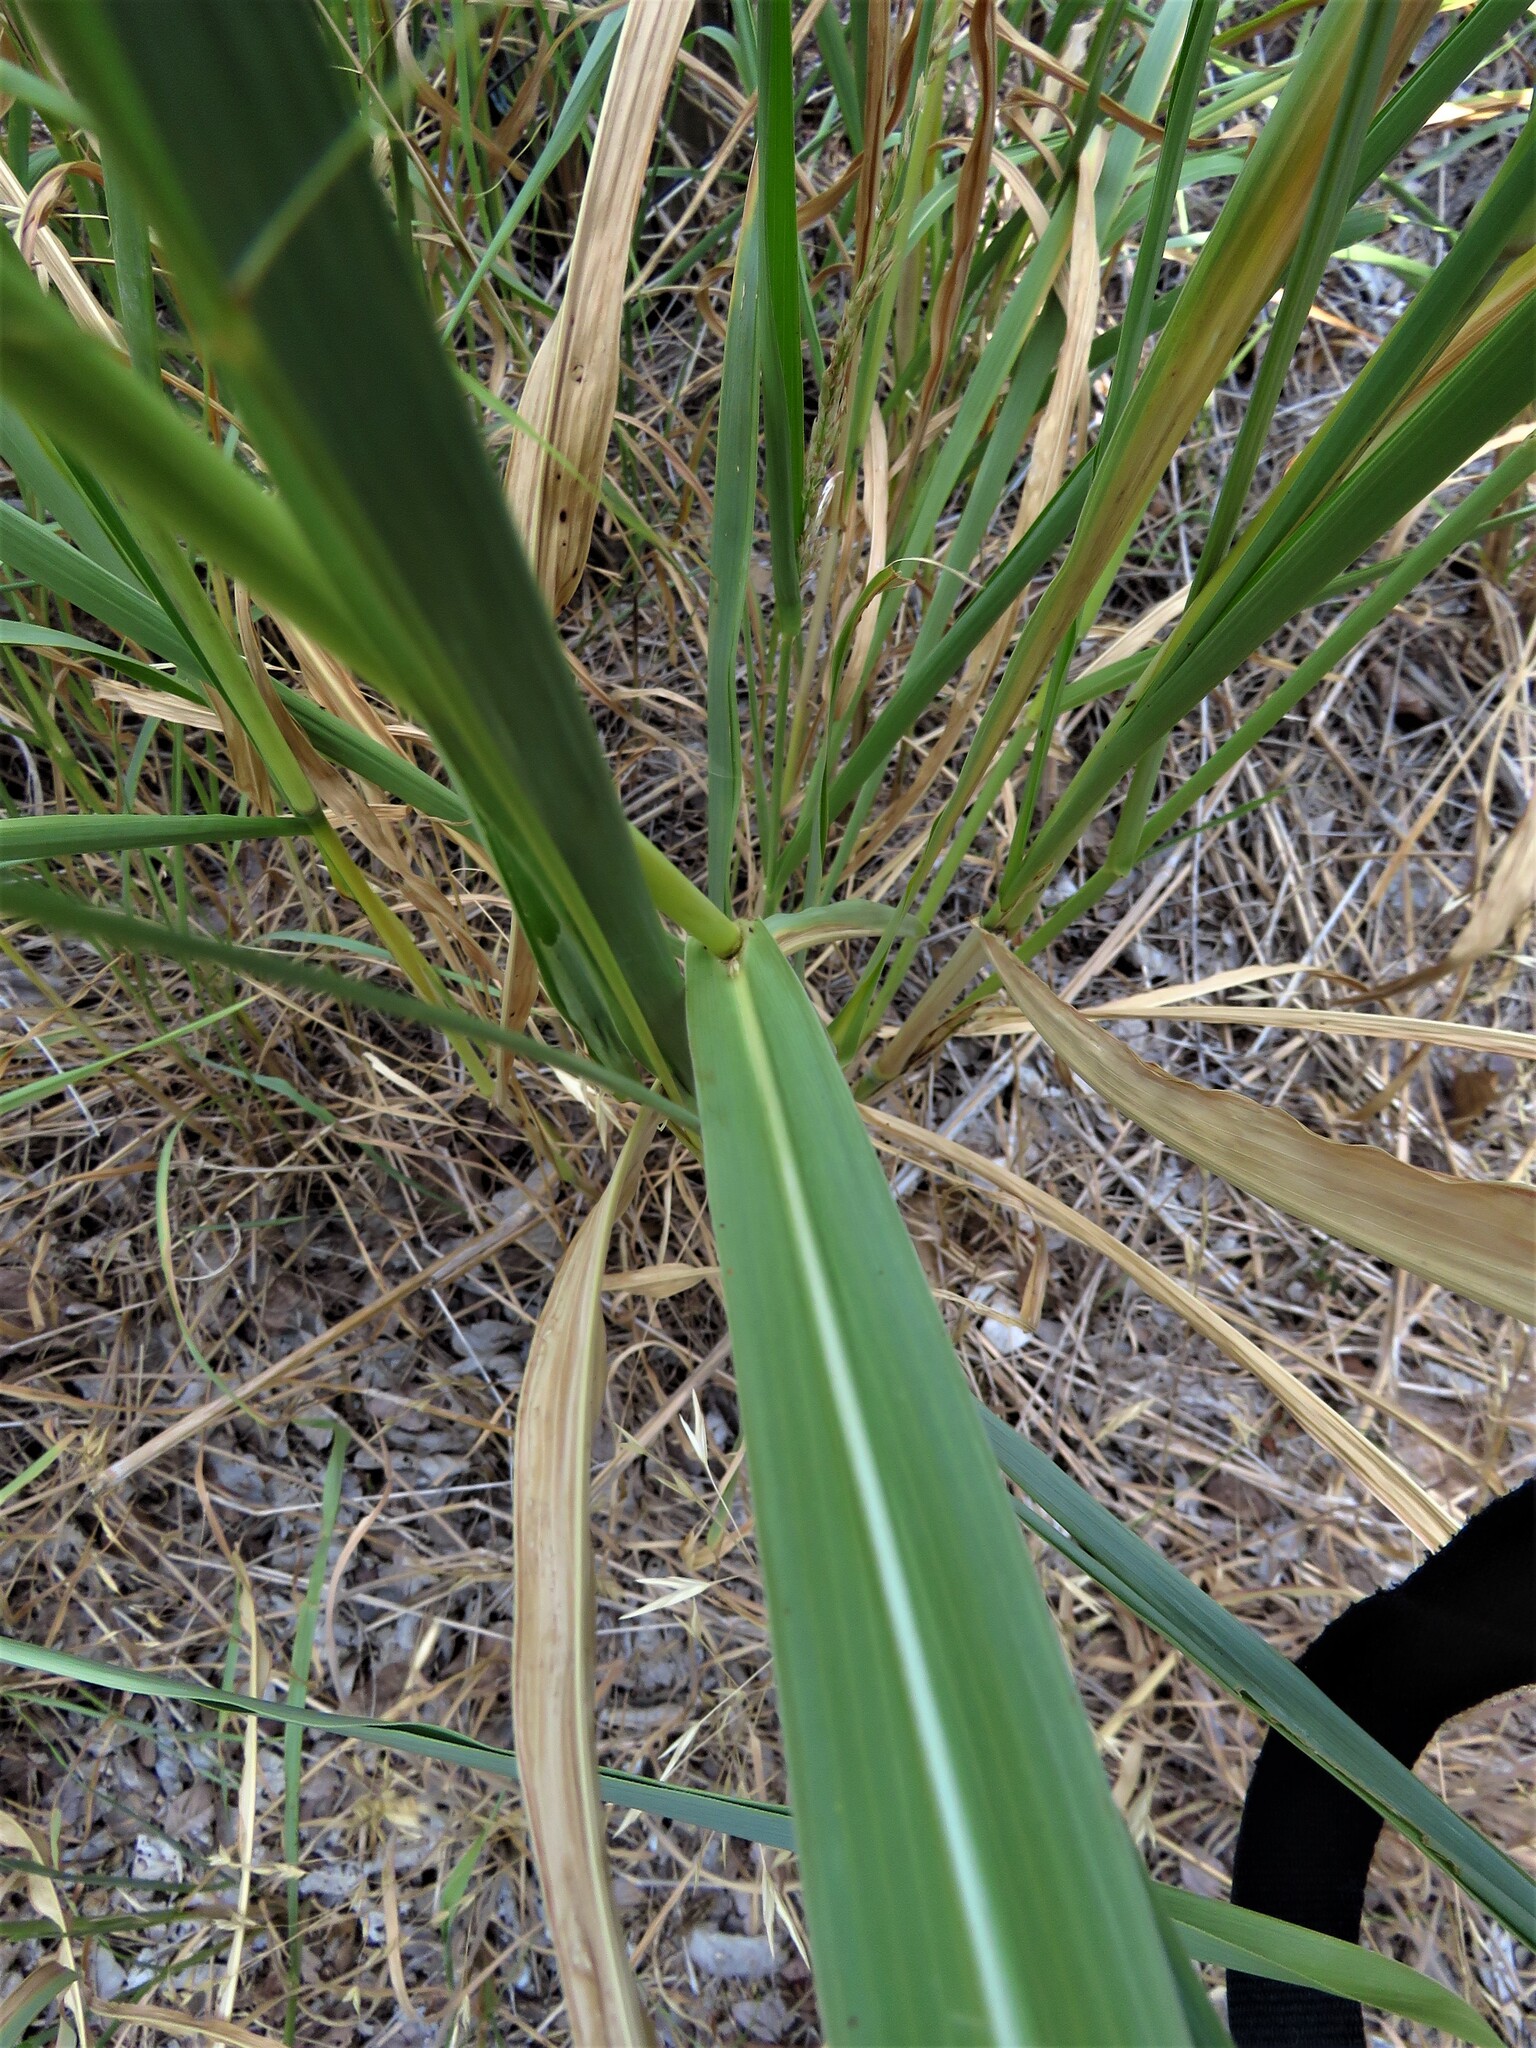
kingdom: Plantae
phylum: Tracheophyta
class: Liliopsida
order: Poales
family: Poaceae
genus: Sorghum
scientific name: Sorghum halepense
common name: Johnson-grass
